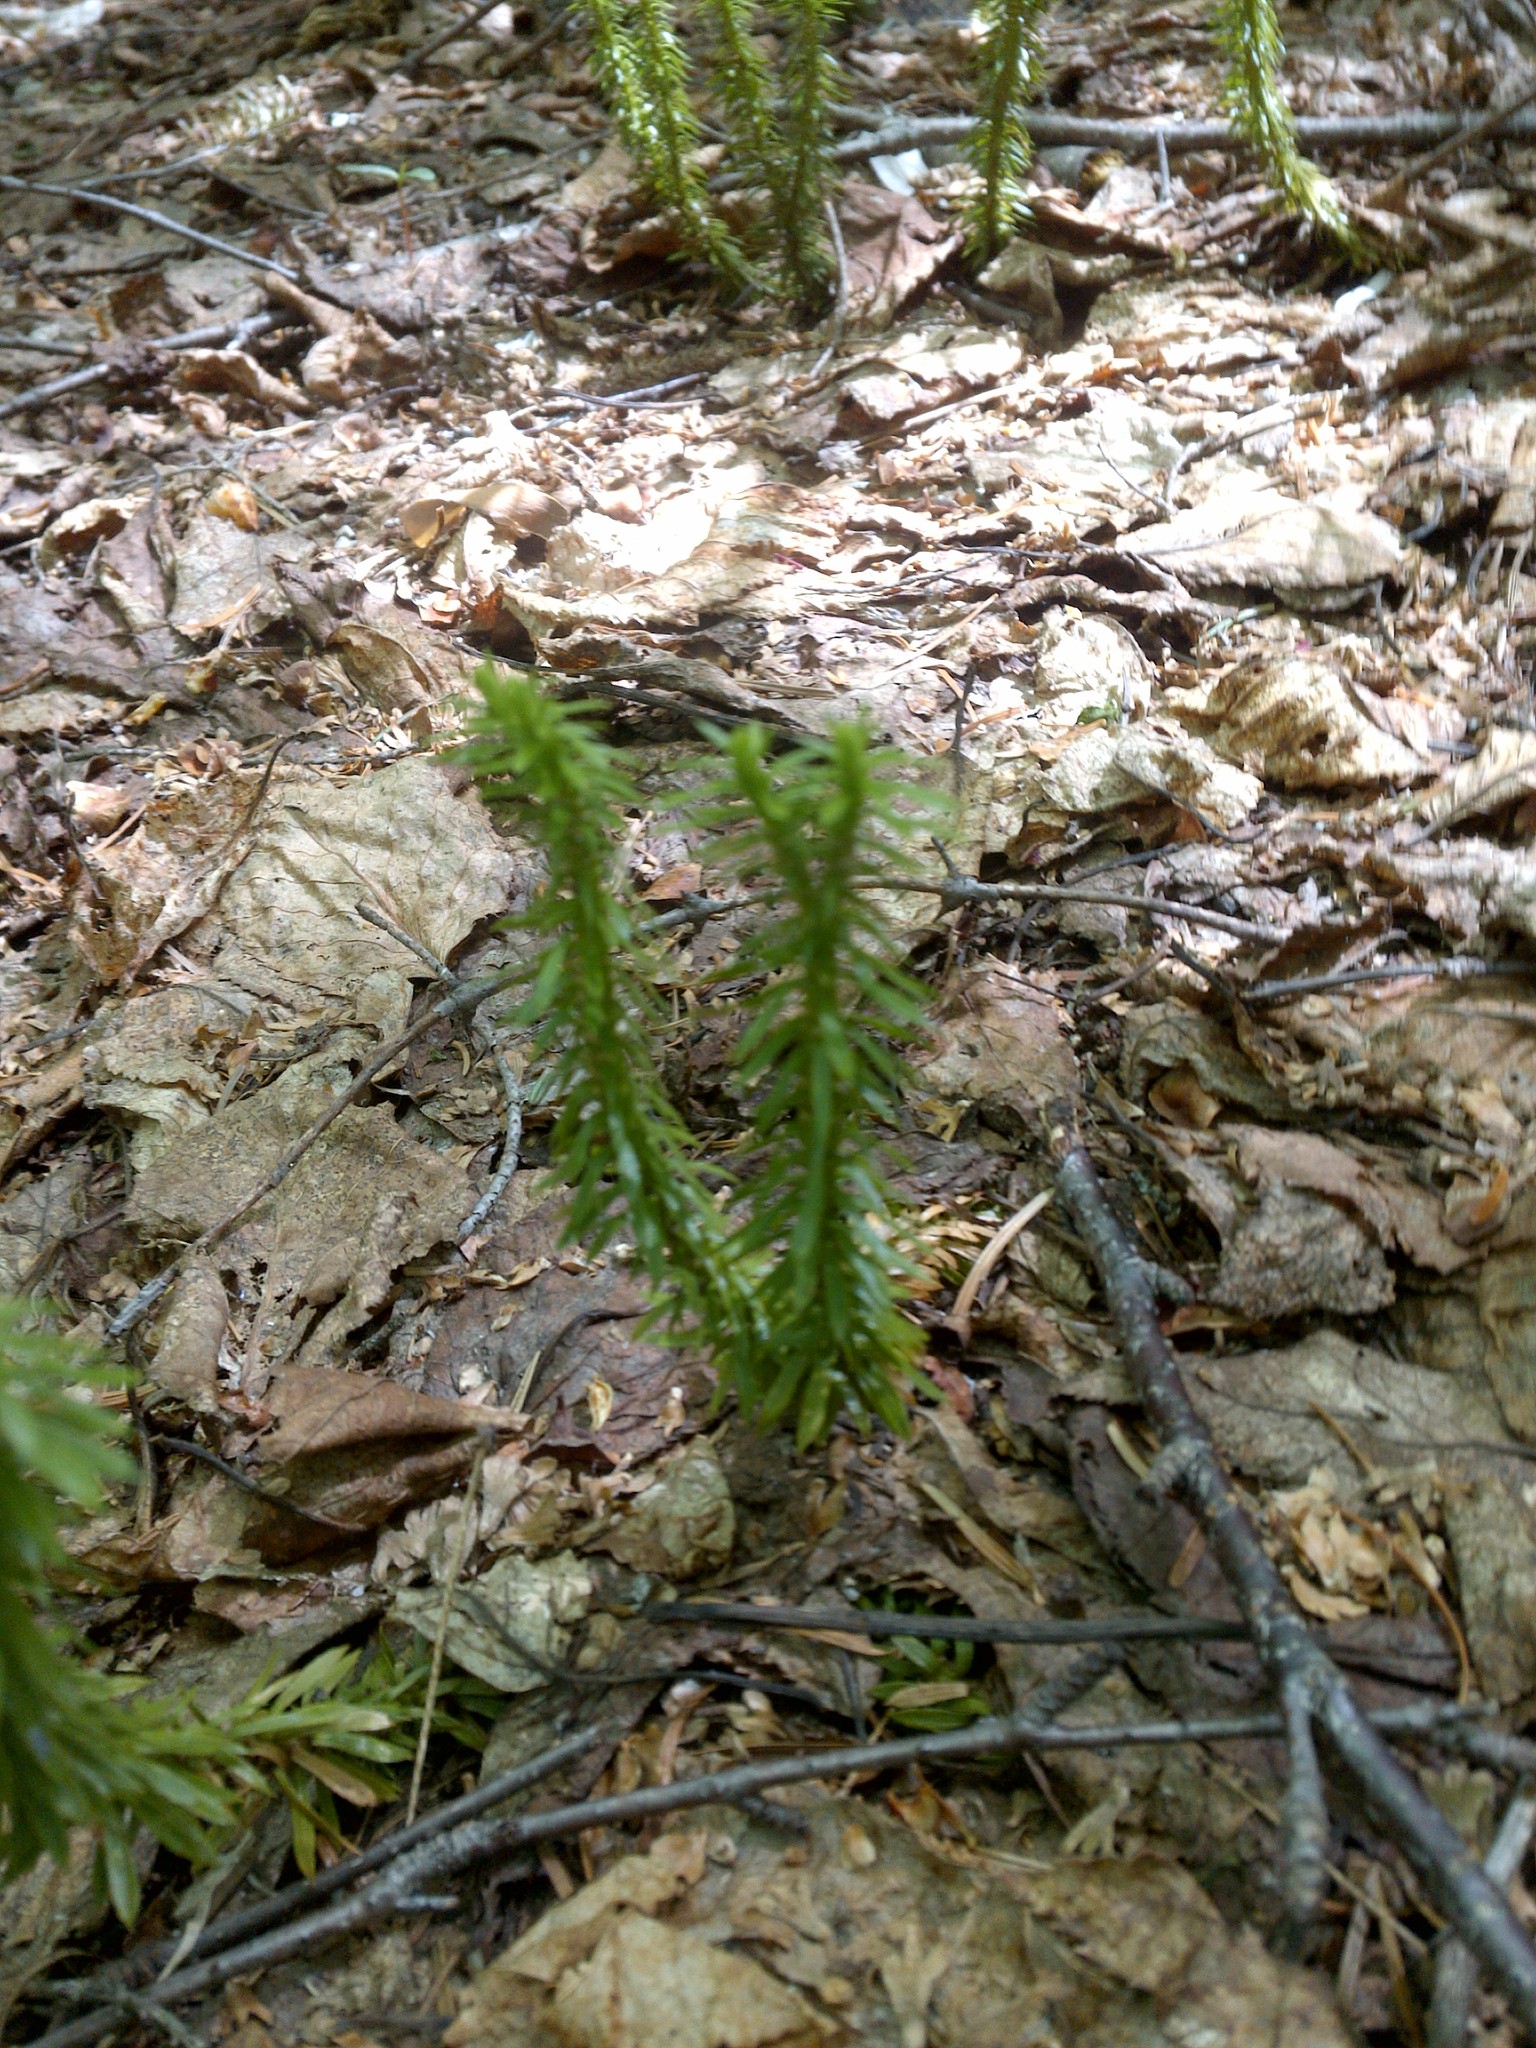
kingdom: Plantae
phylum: Tracheophyta
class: Lycopodiopsida
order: Lycopodiales
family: Lycopodiaceae
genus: Huperzia
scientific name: Huperzia lucidula
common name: Shining clubmoss
